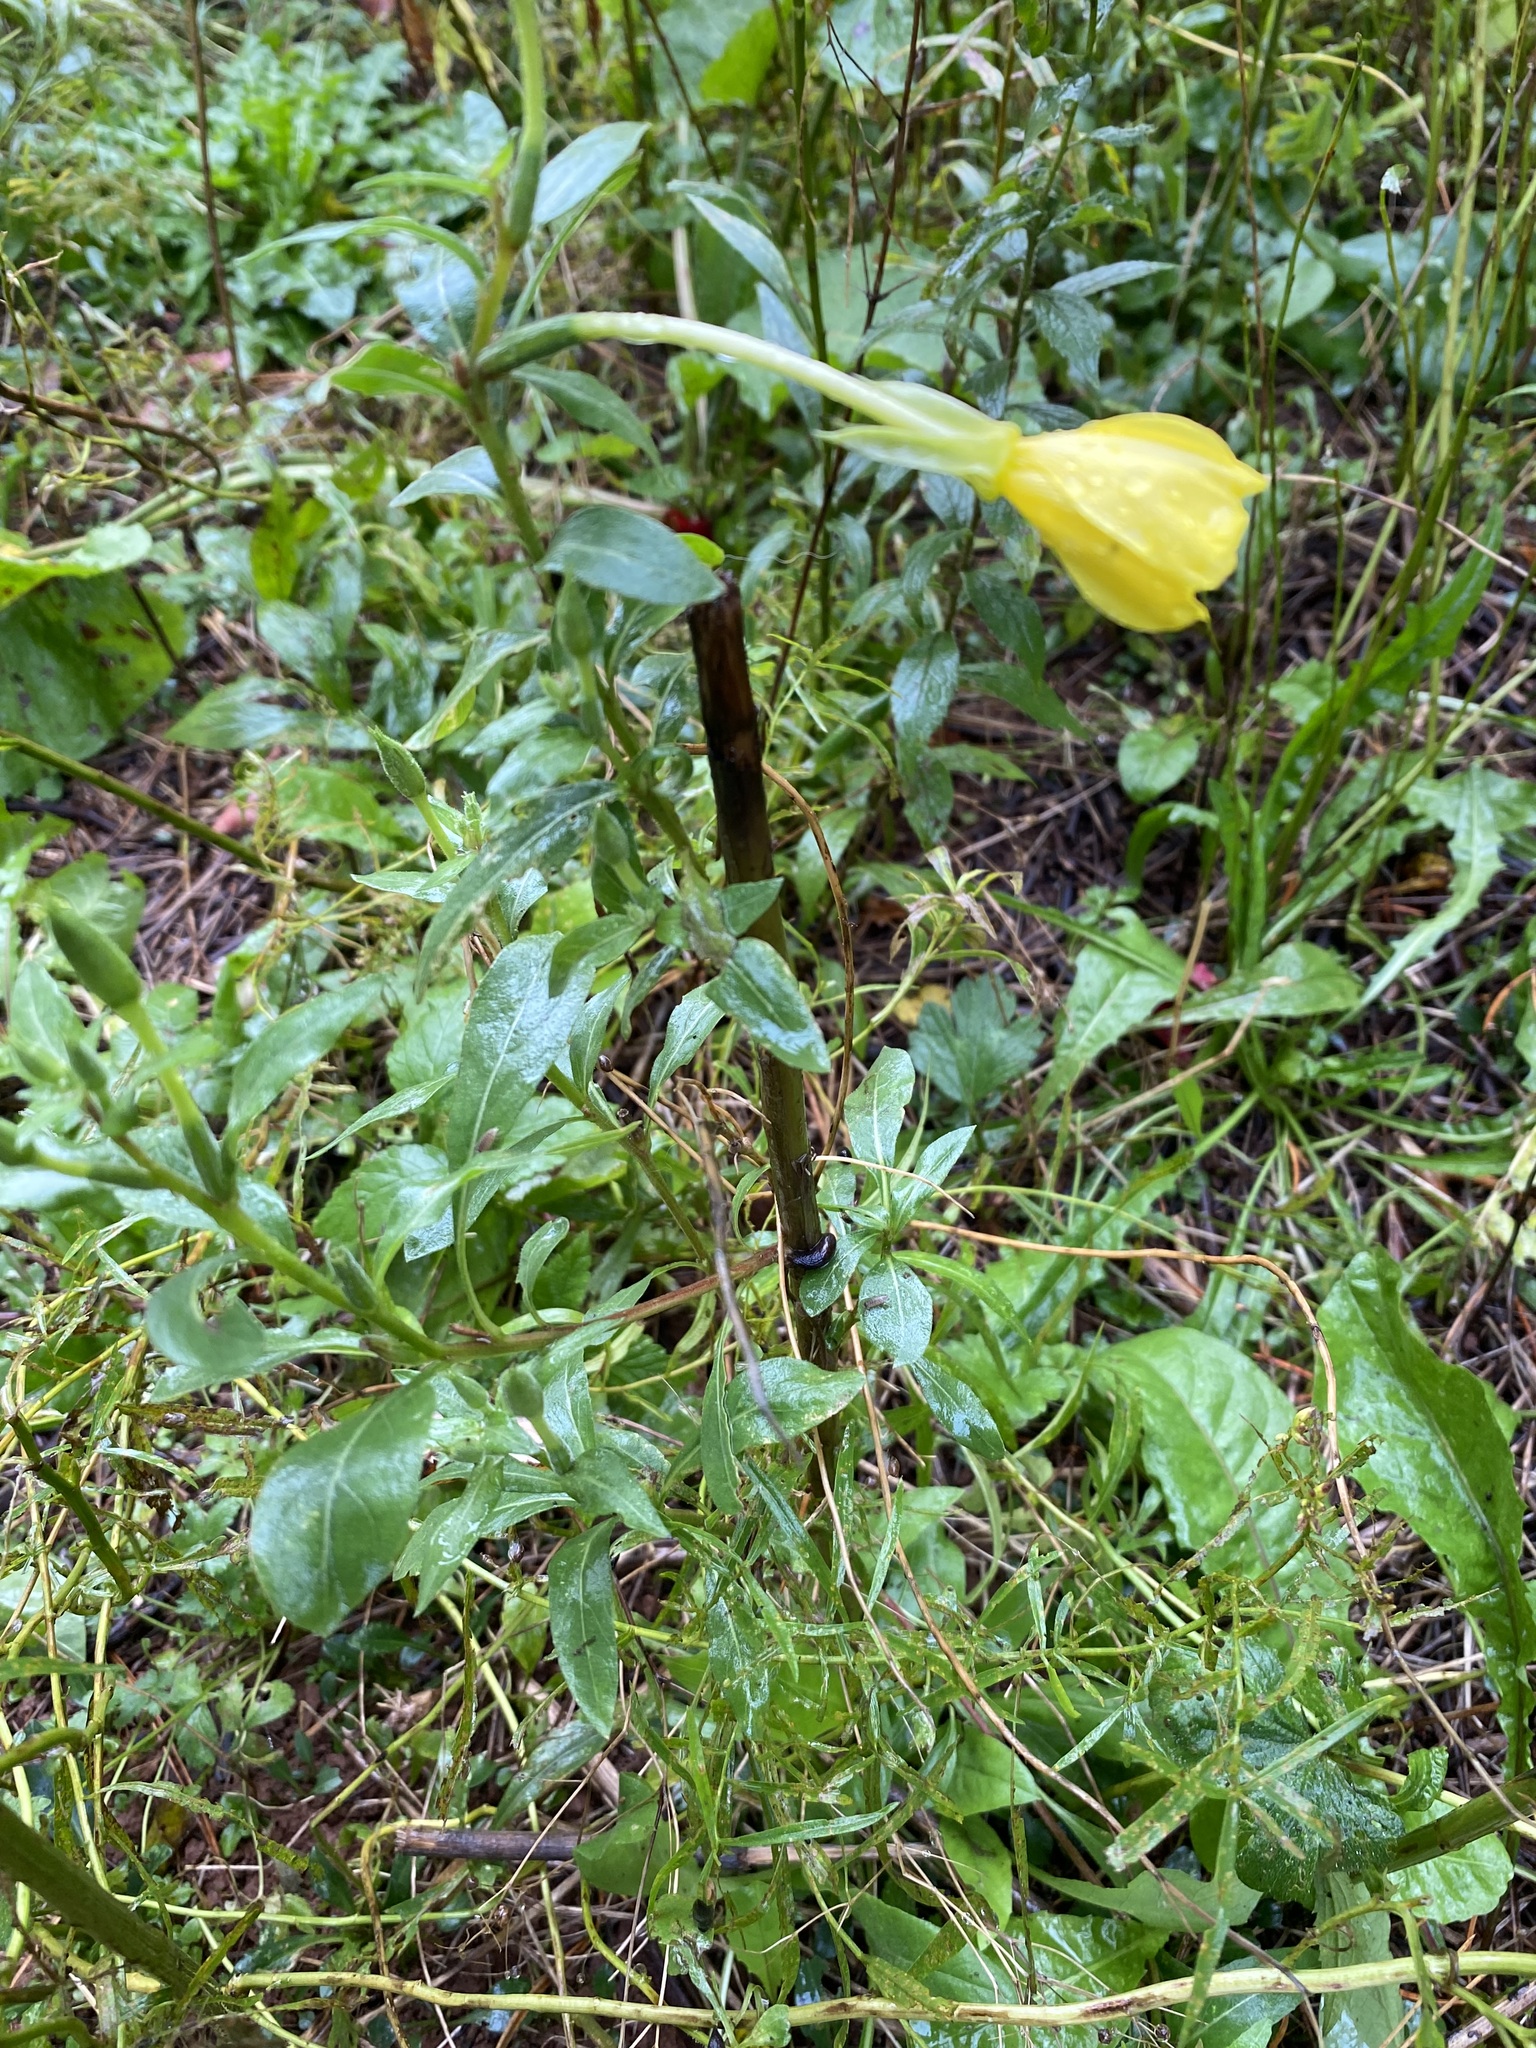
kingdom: Plantae
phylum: Tracheophyta
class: Magnoliopsida
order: Myrtales
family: Onagraceae
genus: Oenothera
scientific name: Oenothera biennis
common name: Common evening-primrose
